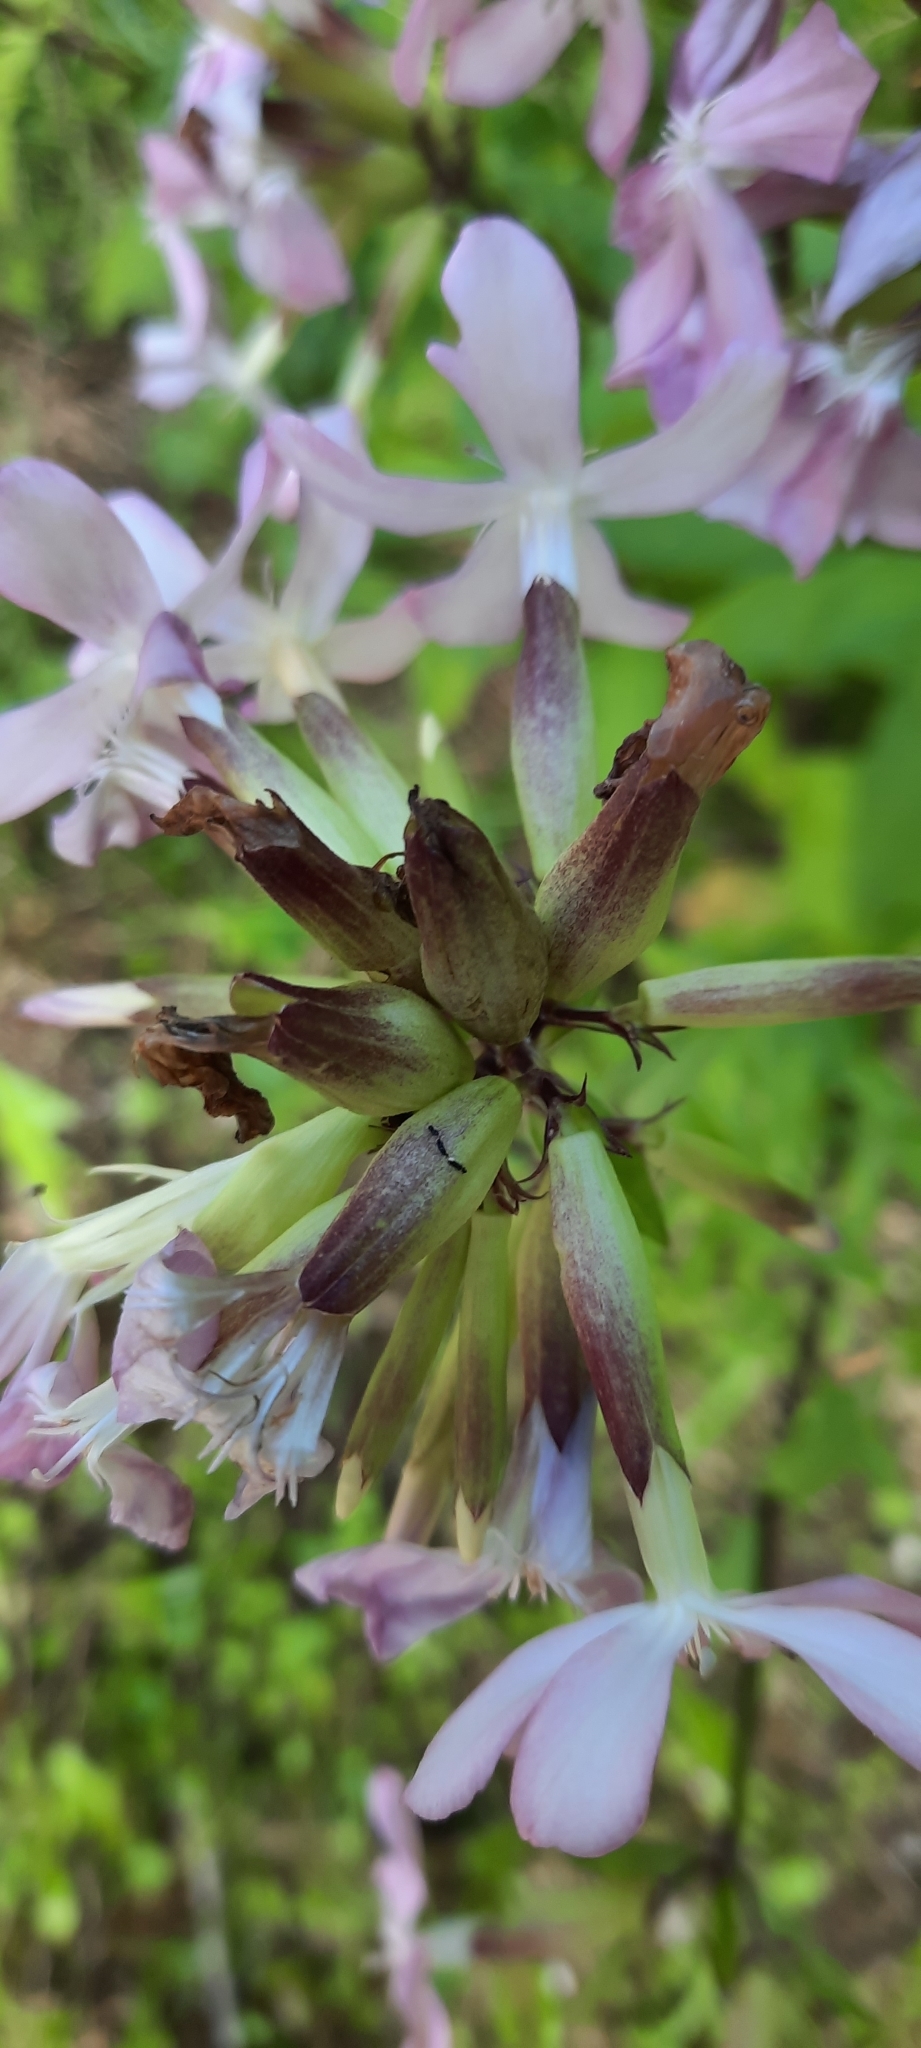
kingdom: Plantae
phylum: Tracheophyta
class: Magnoliopsida
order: Caryophyllales
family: Caryophyllaceae
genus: Saponaria
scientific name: Saponaria officinalis
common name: Soapwort
